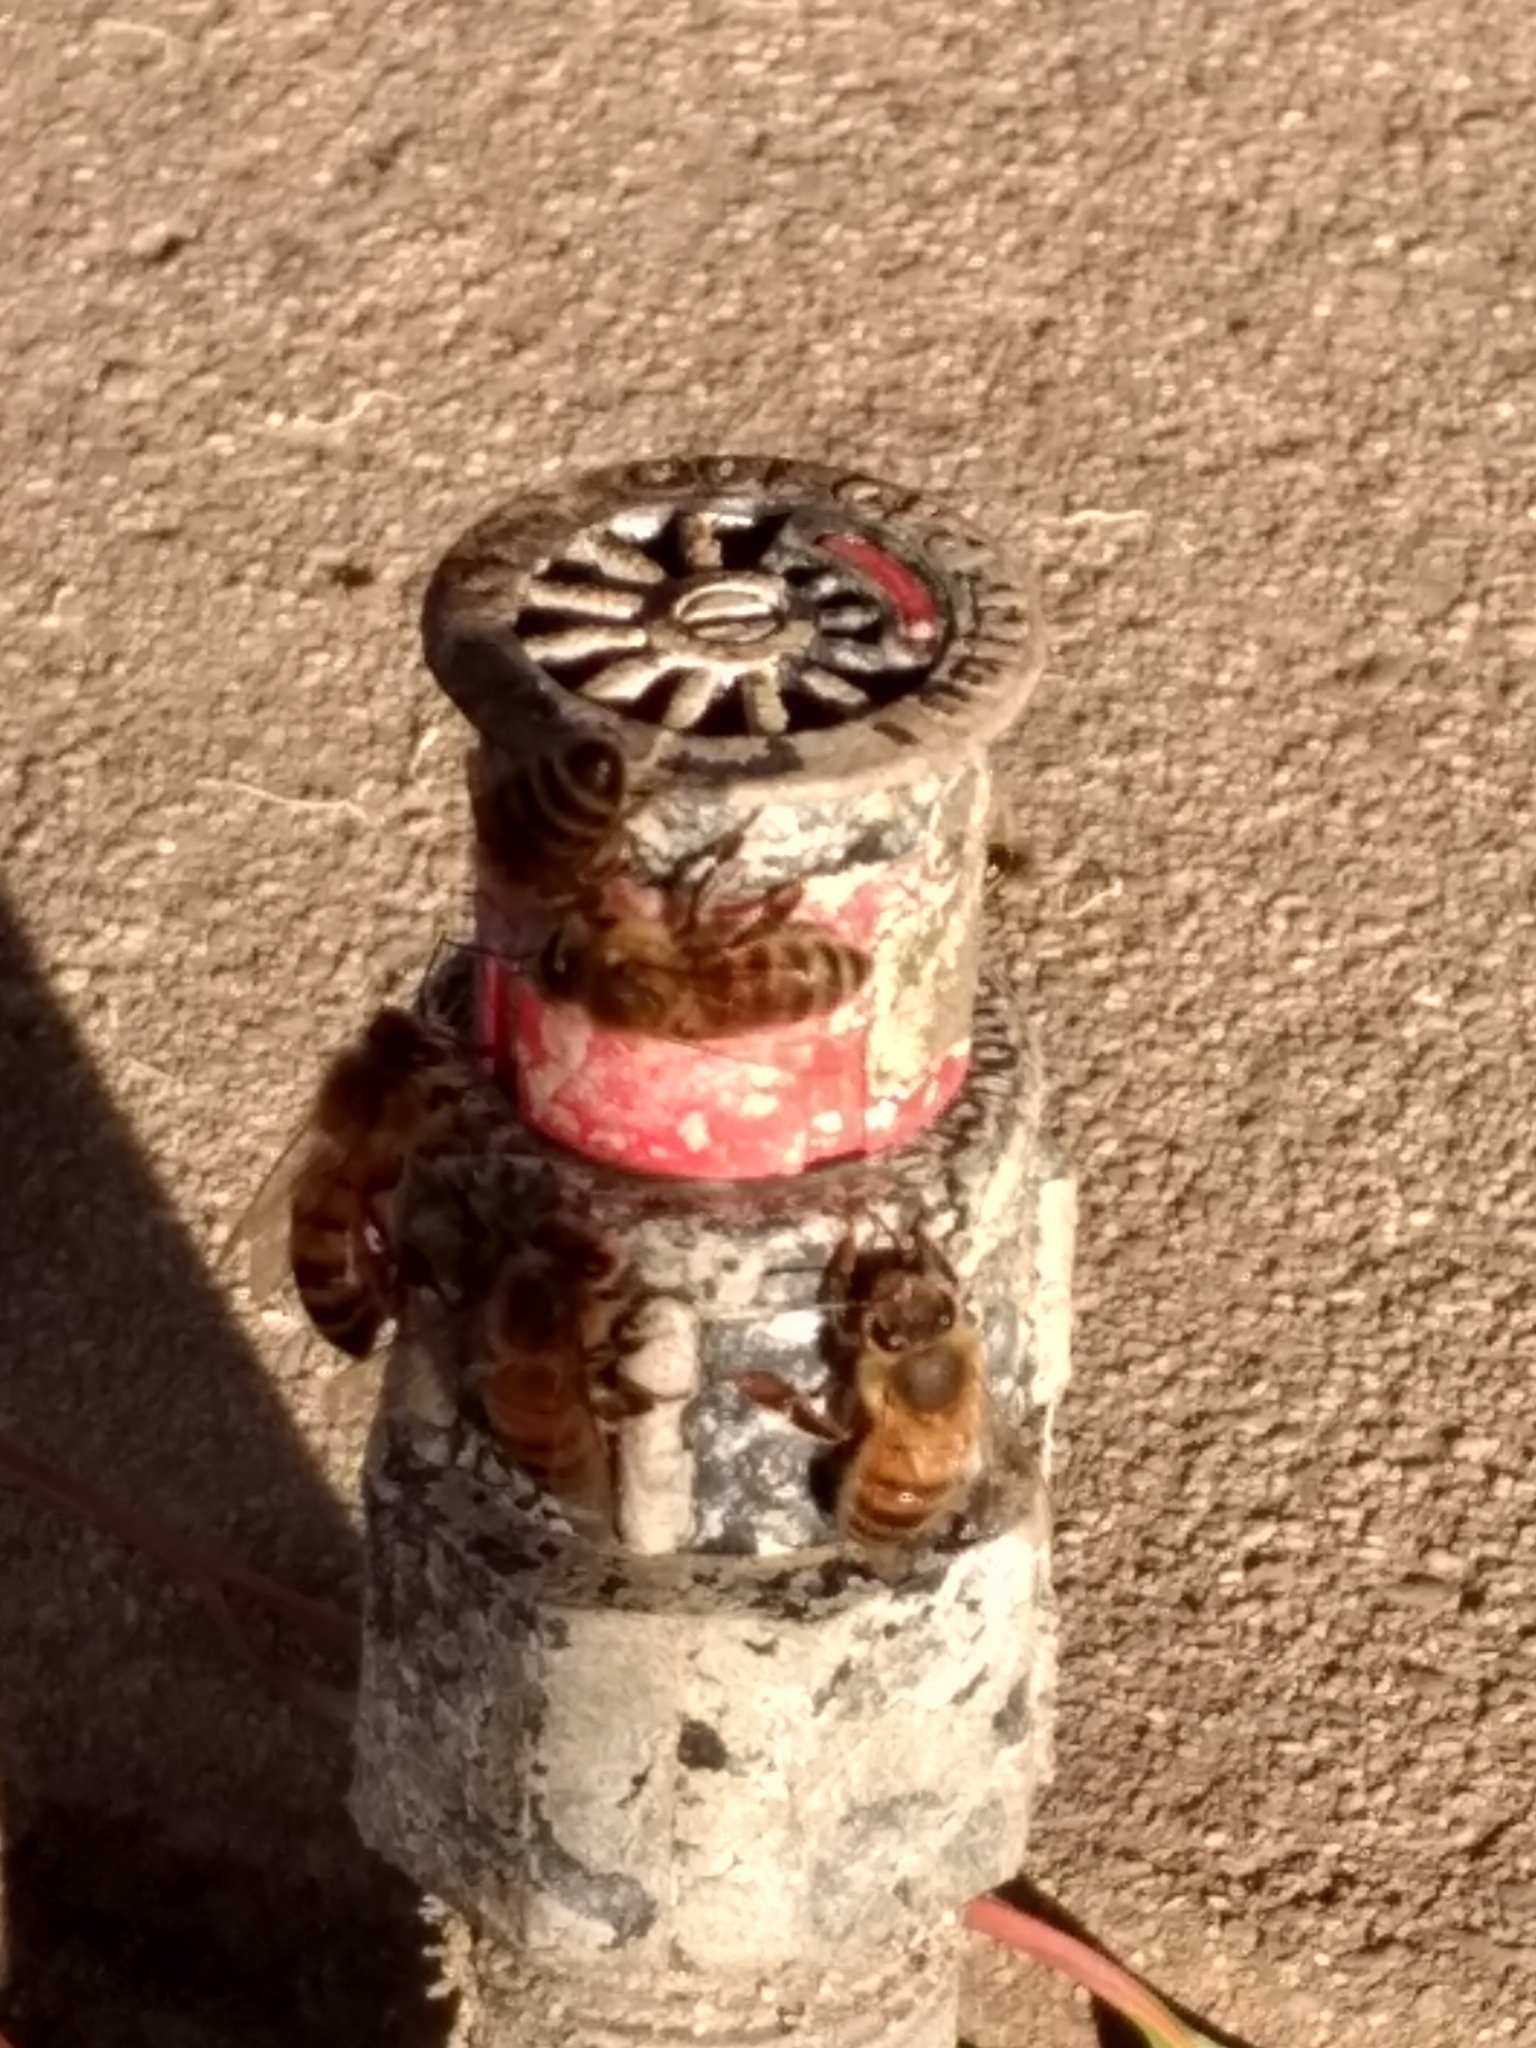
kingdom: Animalia
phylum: Arthropoda
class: Insecta
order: Hymenoptera
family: Apidae
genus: Apis
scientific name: Apis mellifera
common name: Honey bee
